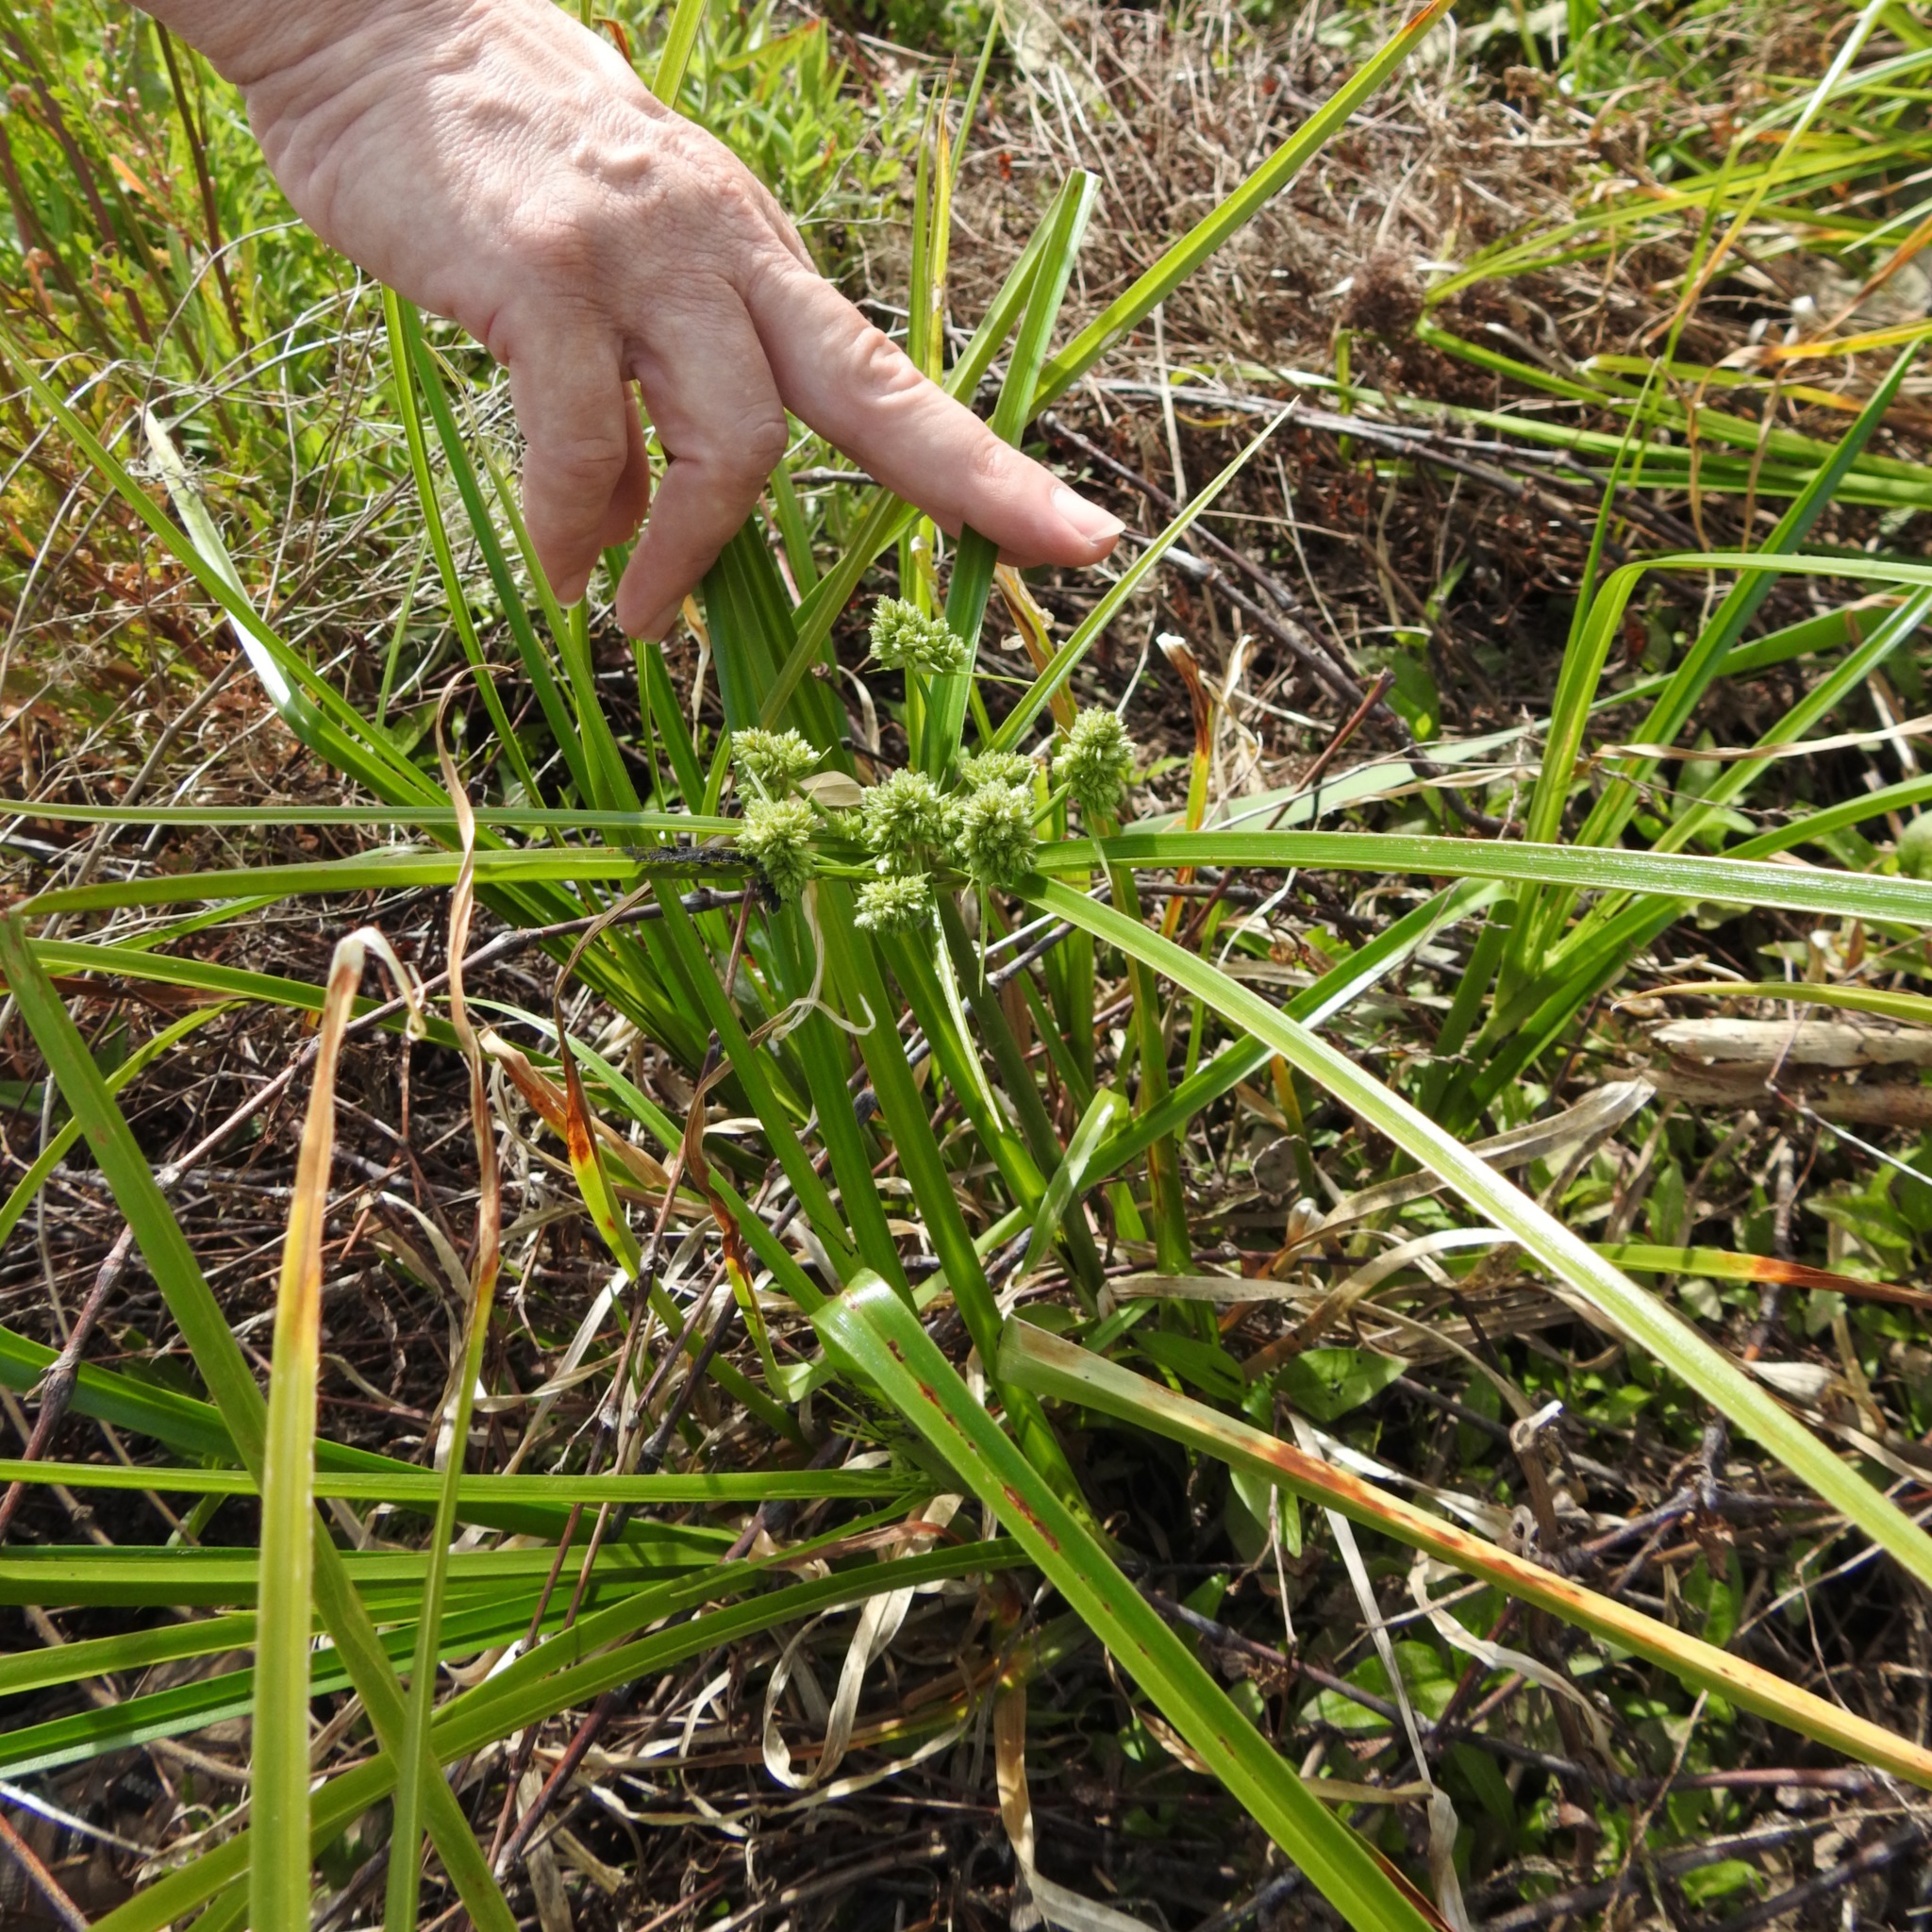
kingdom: Plantae
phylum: Tracheophyta
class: Liliopsida
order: Poales
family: Cyperaceae
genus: Cyperus
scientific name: Cyperus eragrostis
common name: Tall flatsedge
